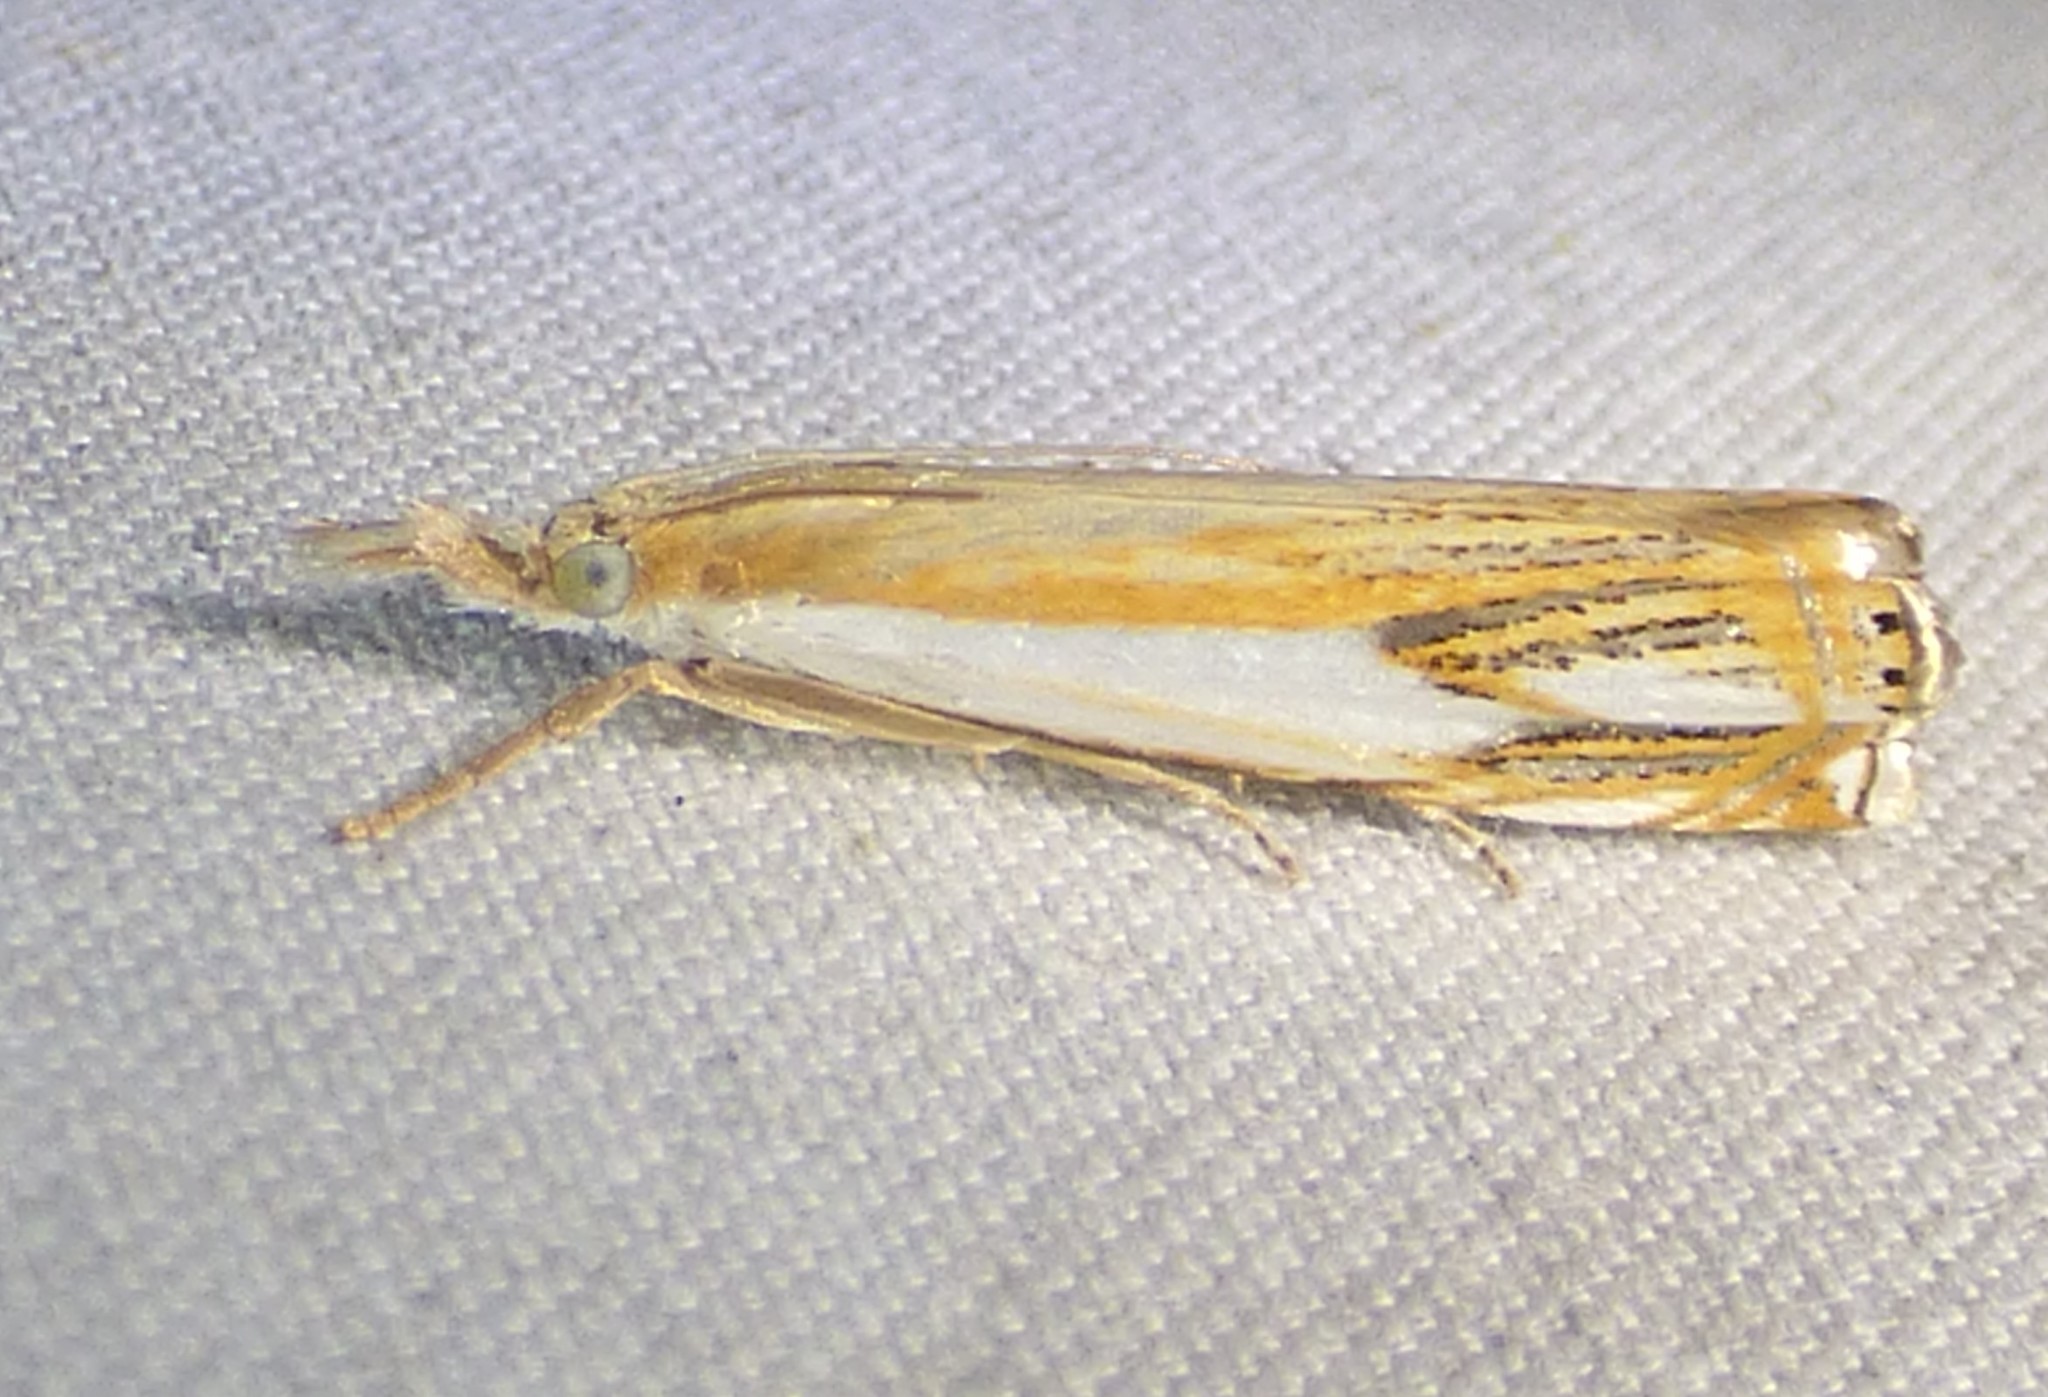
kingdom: Animalia
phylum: Arthropoda
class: Insecta
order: Lepidoptera
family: Crambidae
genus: Crambus
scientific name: Crambus agitatellus
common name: Double-banded grass-veneer
